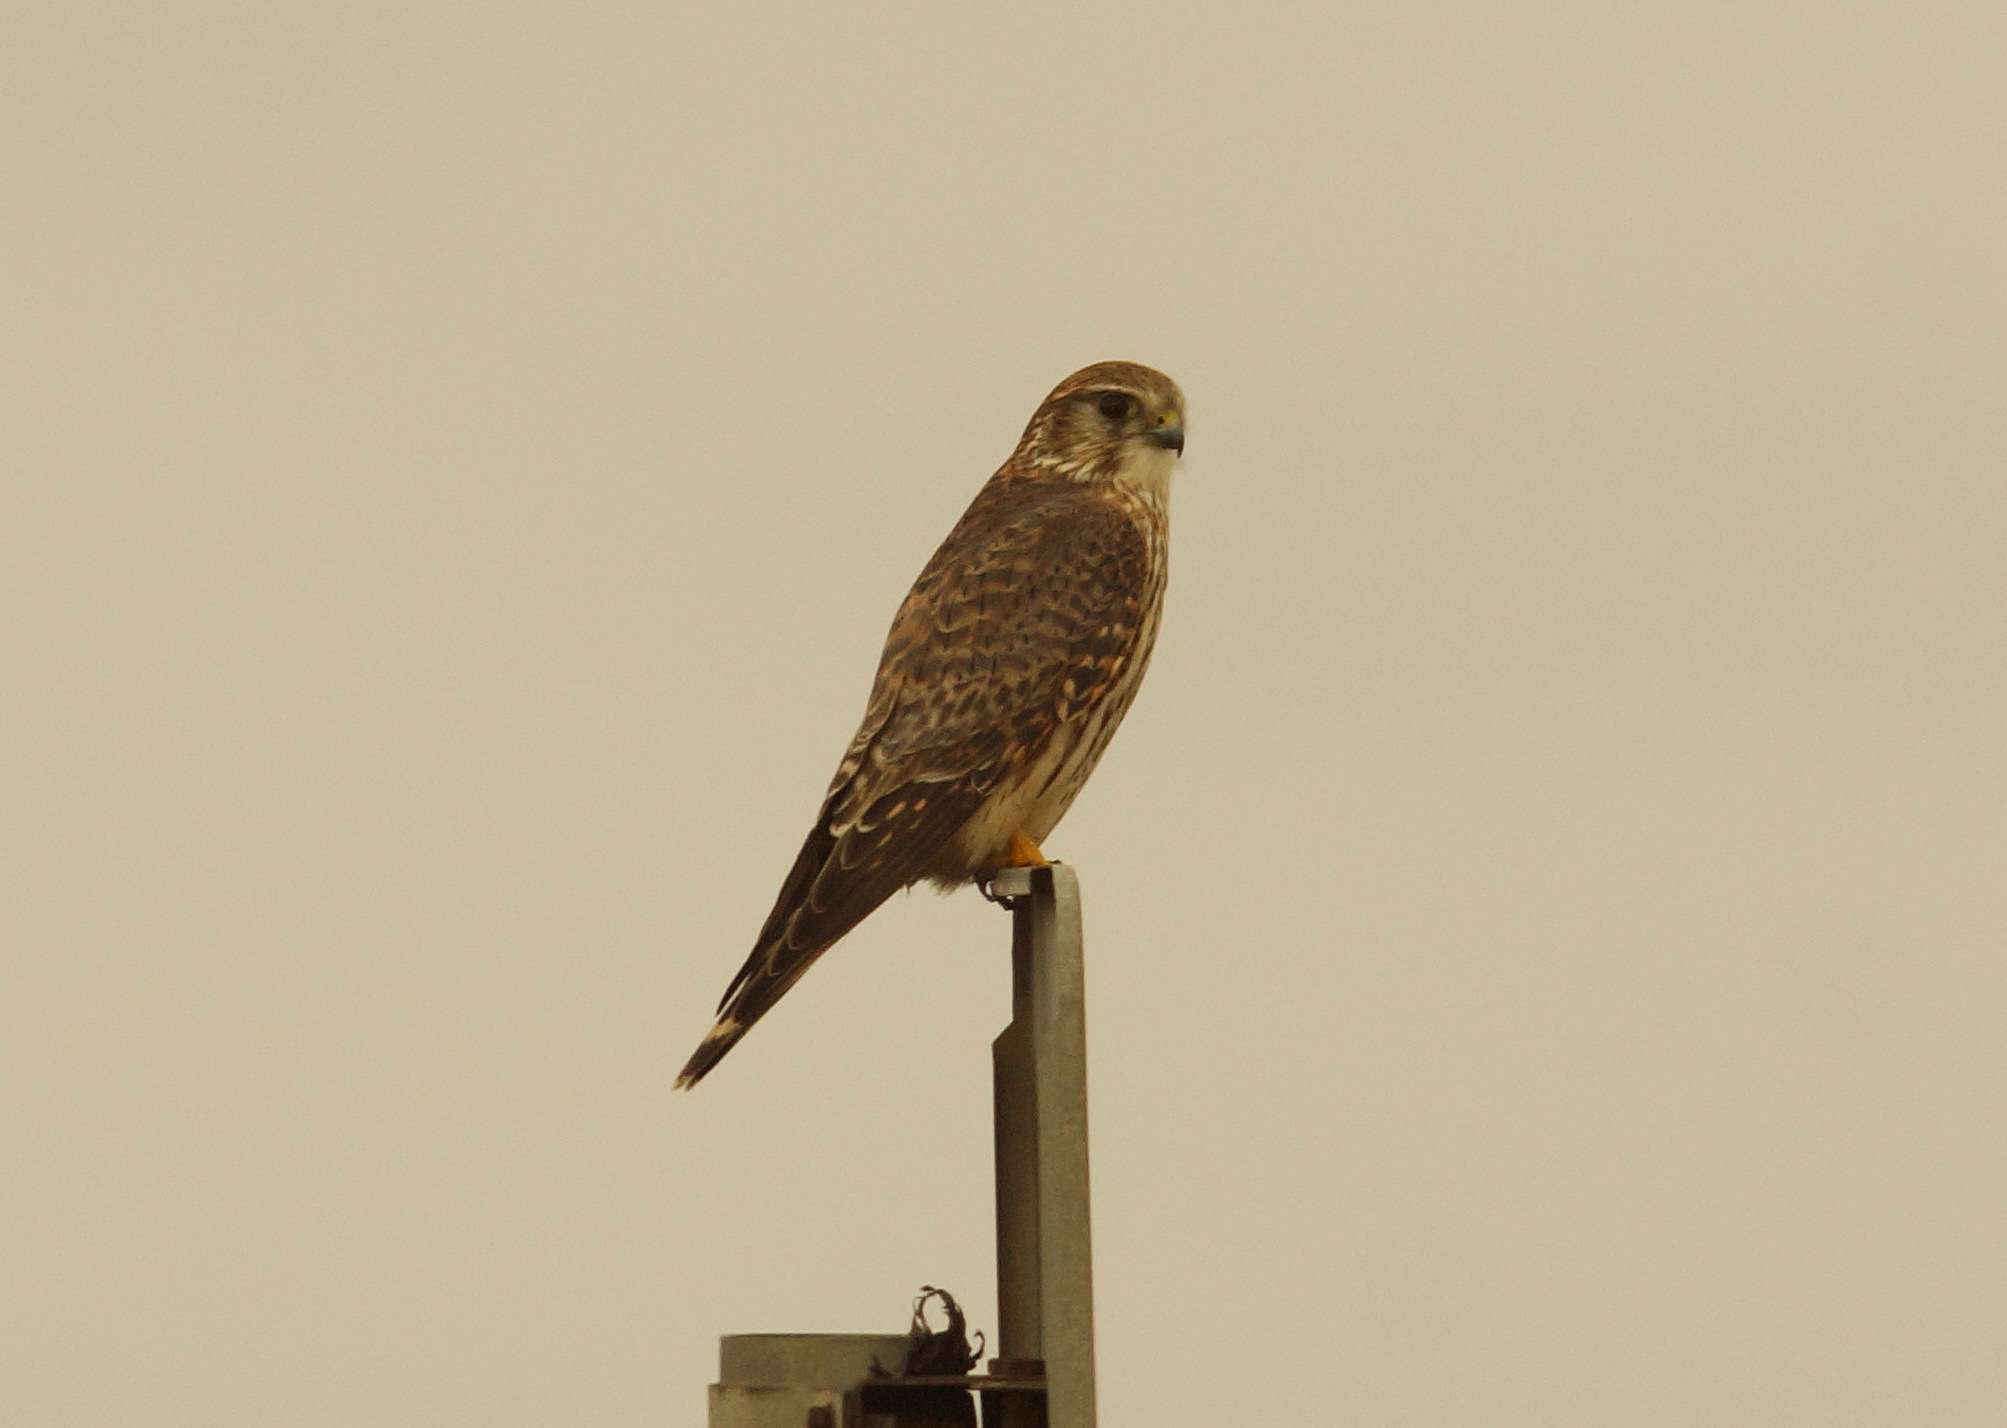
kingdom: Animalia
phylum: Chordata
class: Aves
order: Falconiformes
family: Falconidae
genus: Falco
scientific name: Falco columbarius
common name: Merlin
